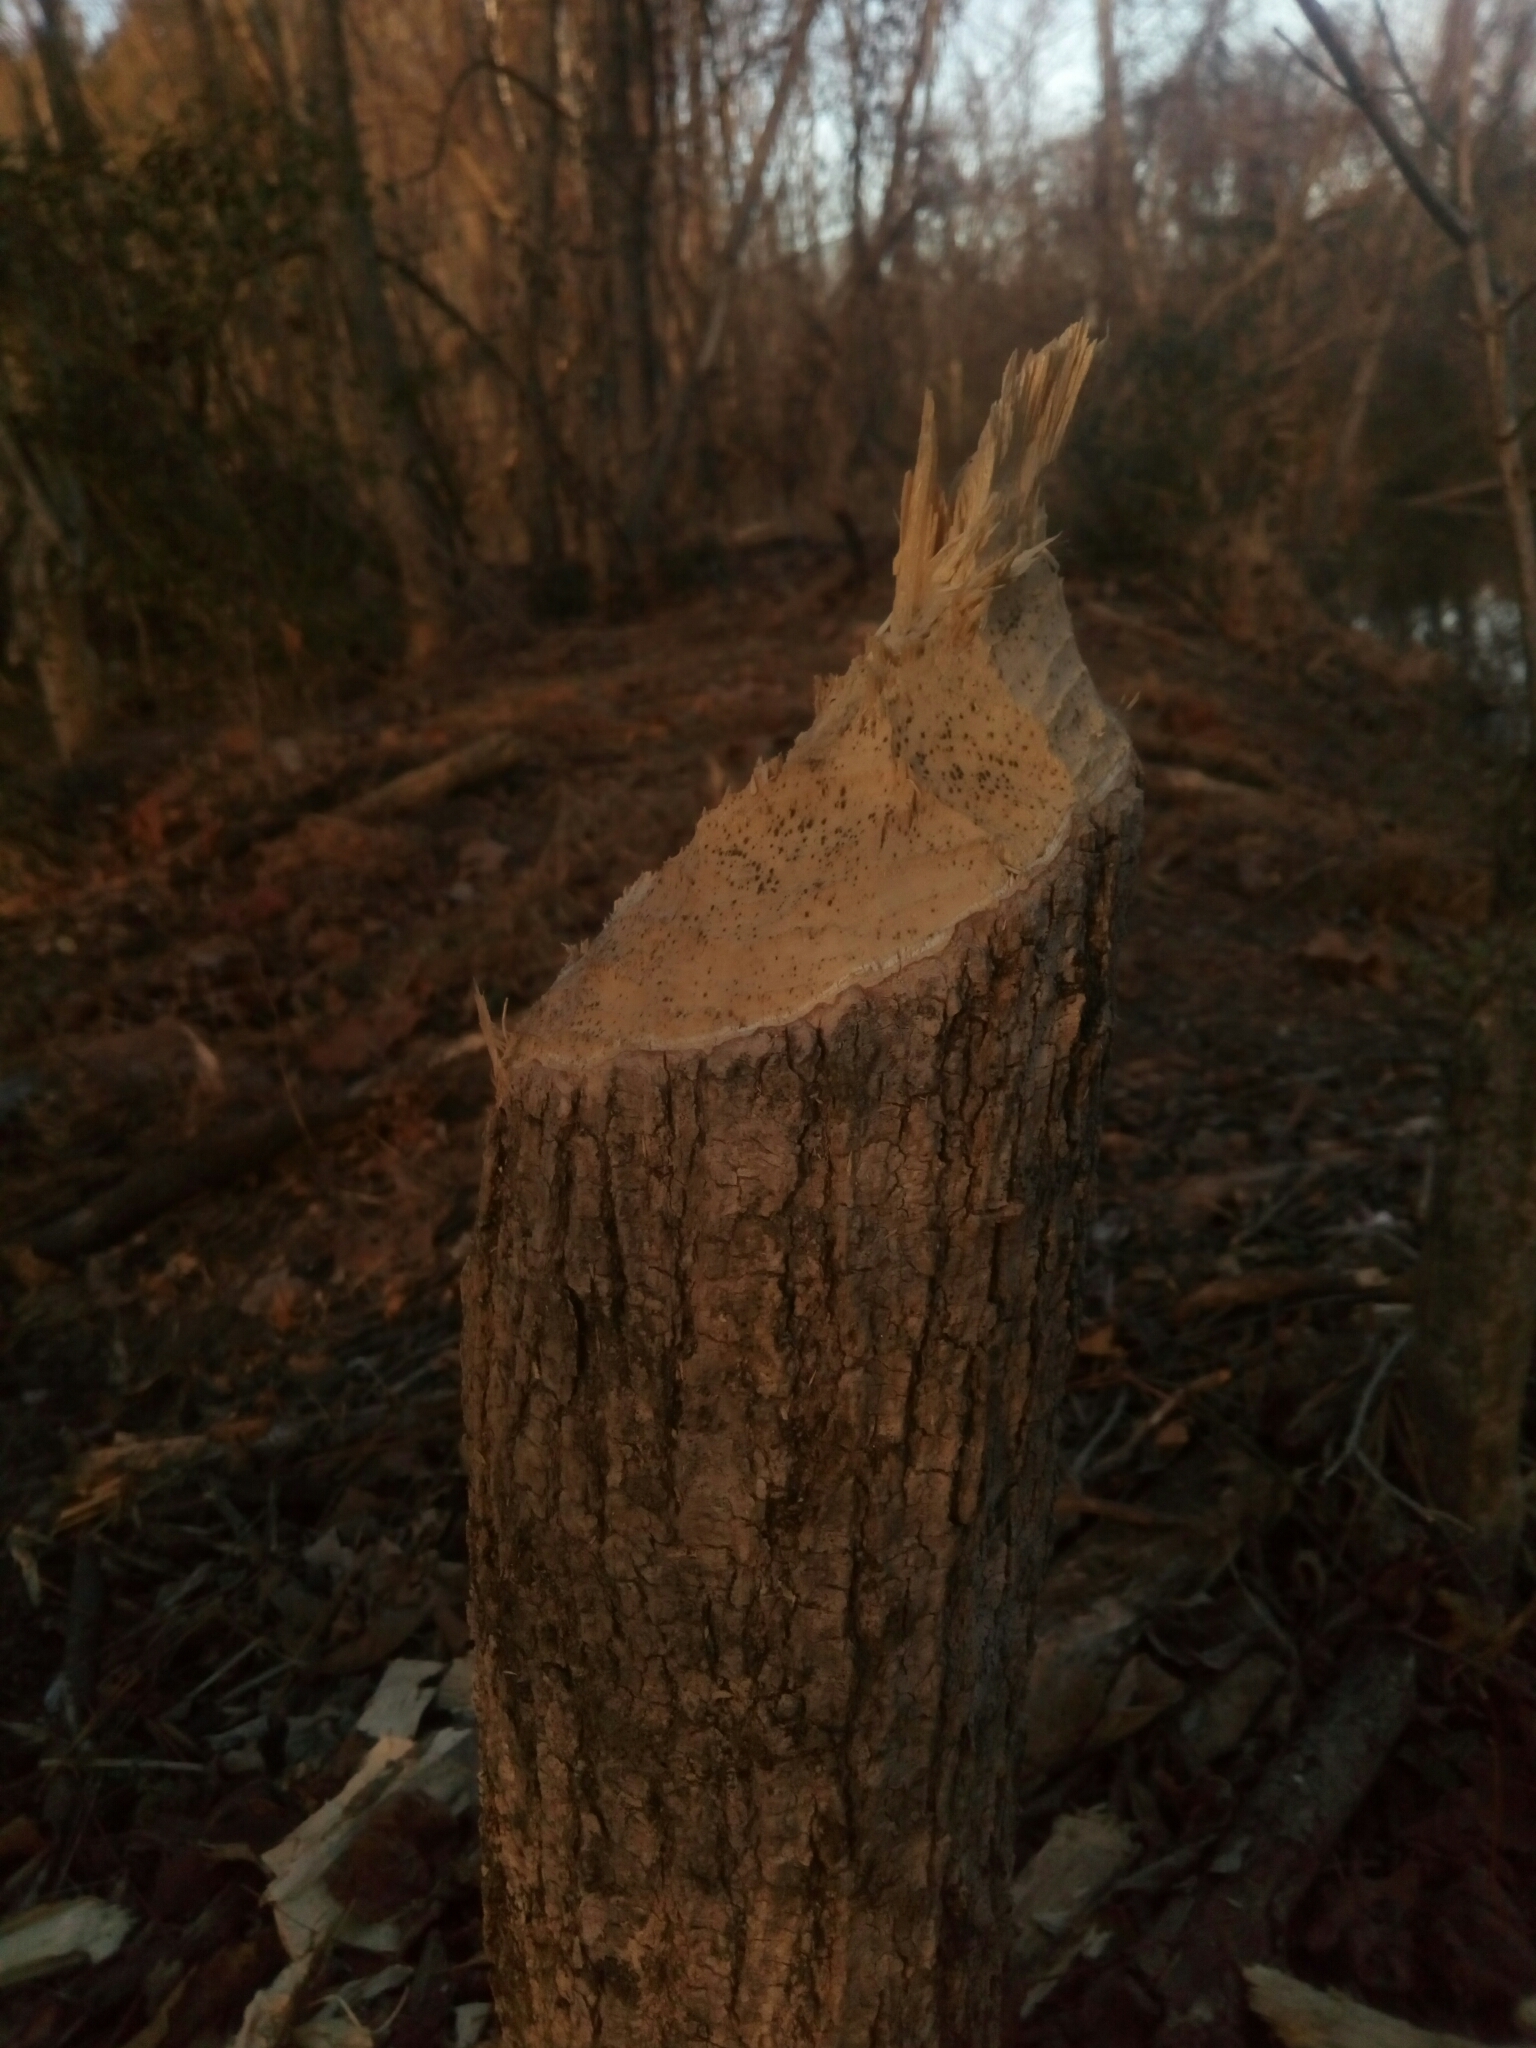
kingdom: Animalia
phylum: Chordata
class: Mammalia
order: Rodentia
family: Castoridae
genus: Castor
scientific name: Castor canadensis
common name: American beaver
